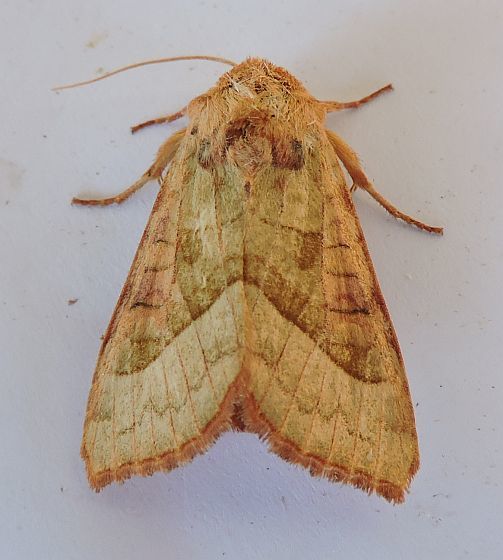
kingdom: Animalia
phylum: Arthropoda
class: Insecta
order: Lepidoptera
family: Noctuidae
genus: Hydraecia
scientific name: Hydraecia stramentosa
